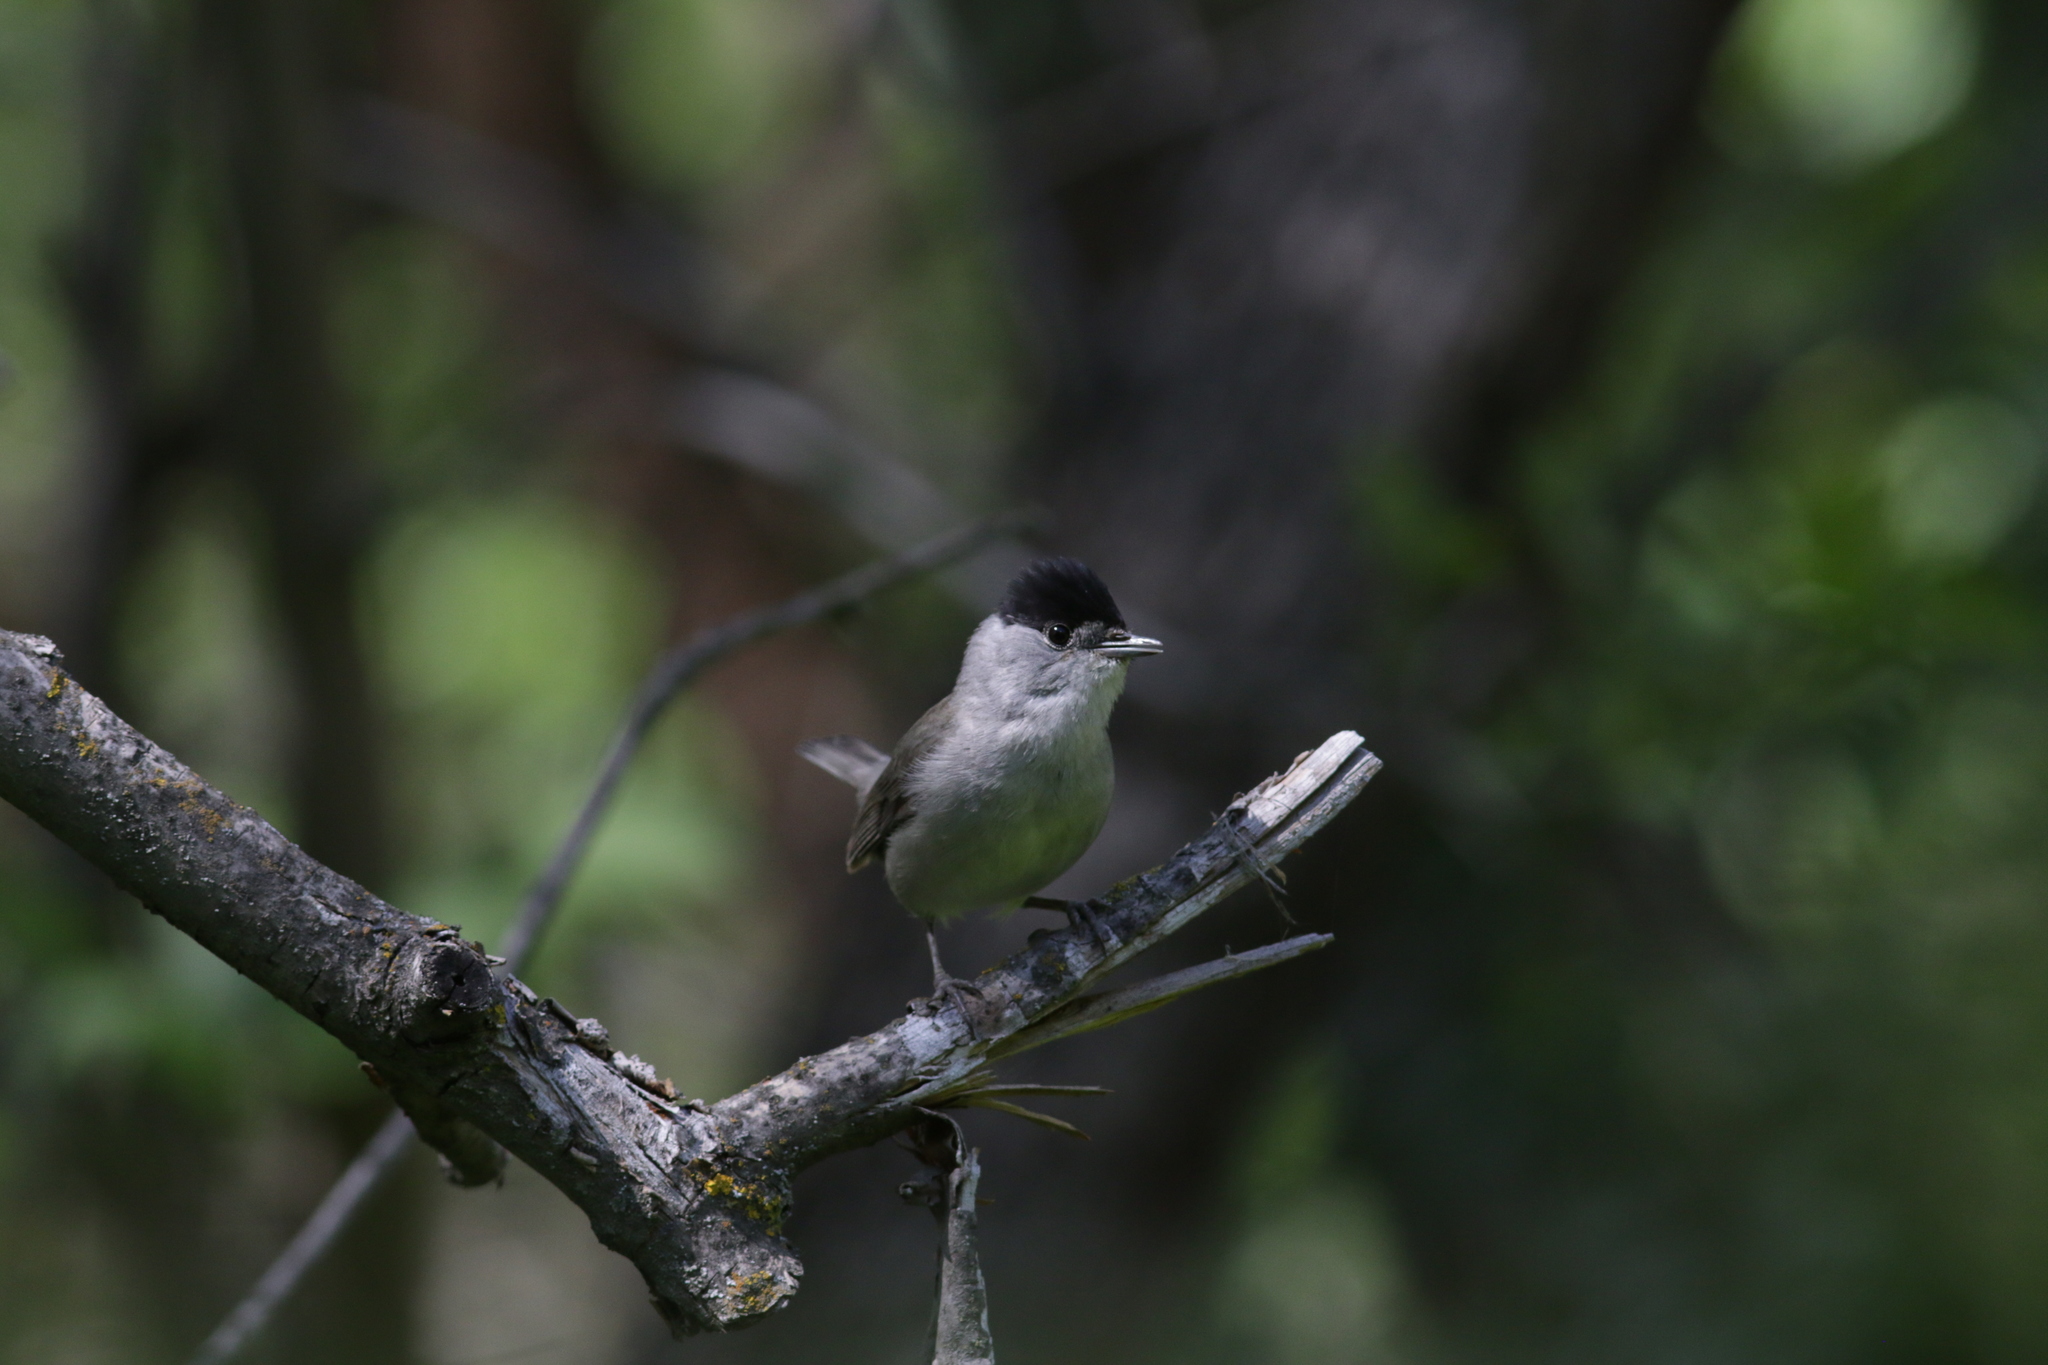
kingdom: Animalia
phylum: Chordata
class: Aves
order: Passeriformes
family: Sylviidae
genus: Sylvia
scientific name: Sylvia atricapilla
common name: Eurasian blackcap
